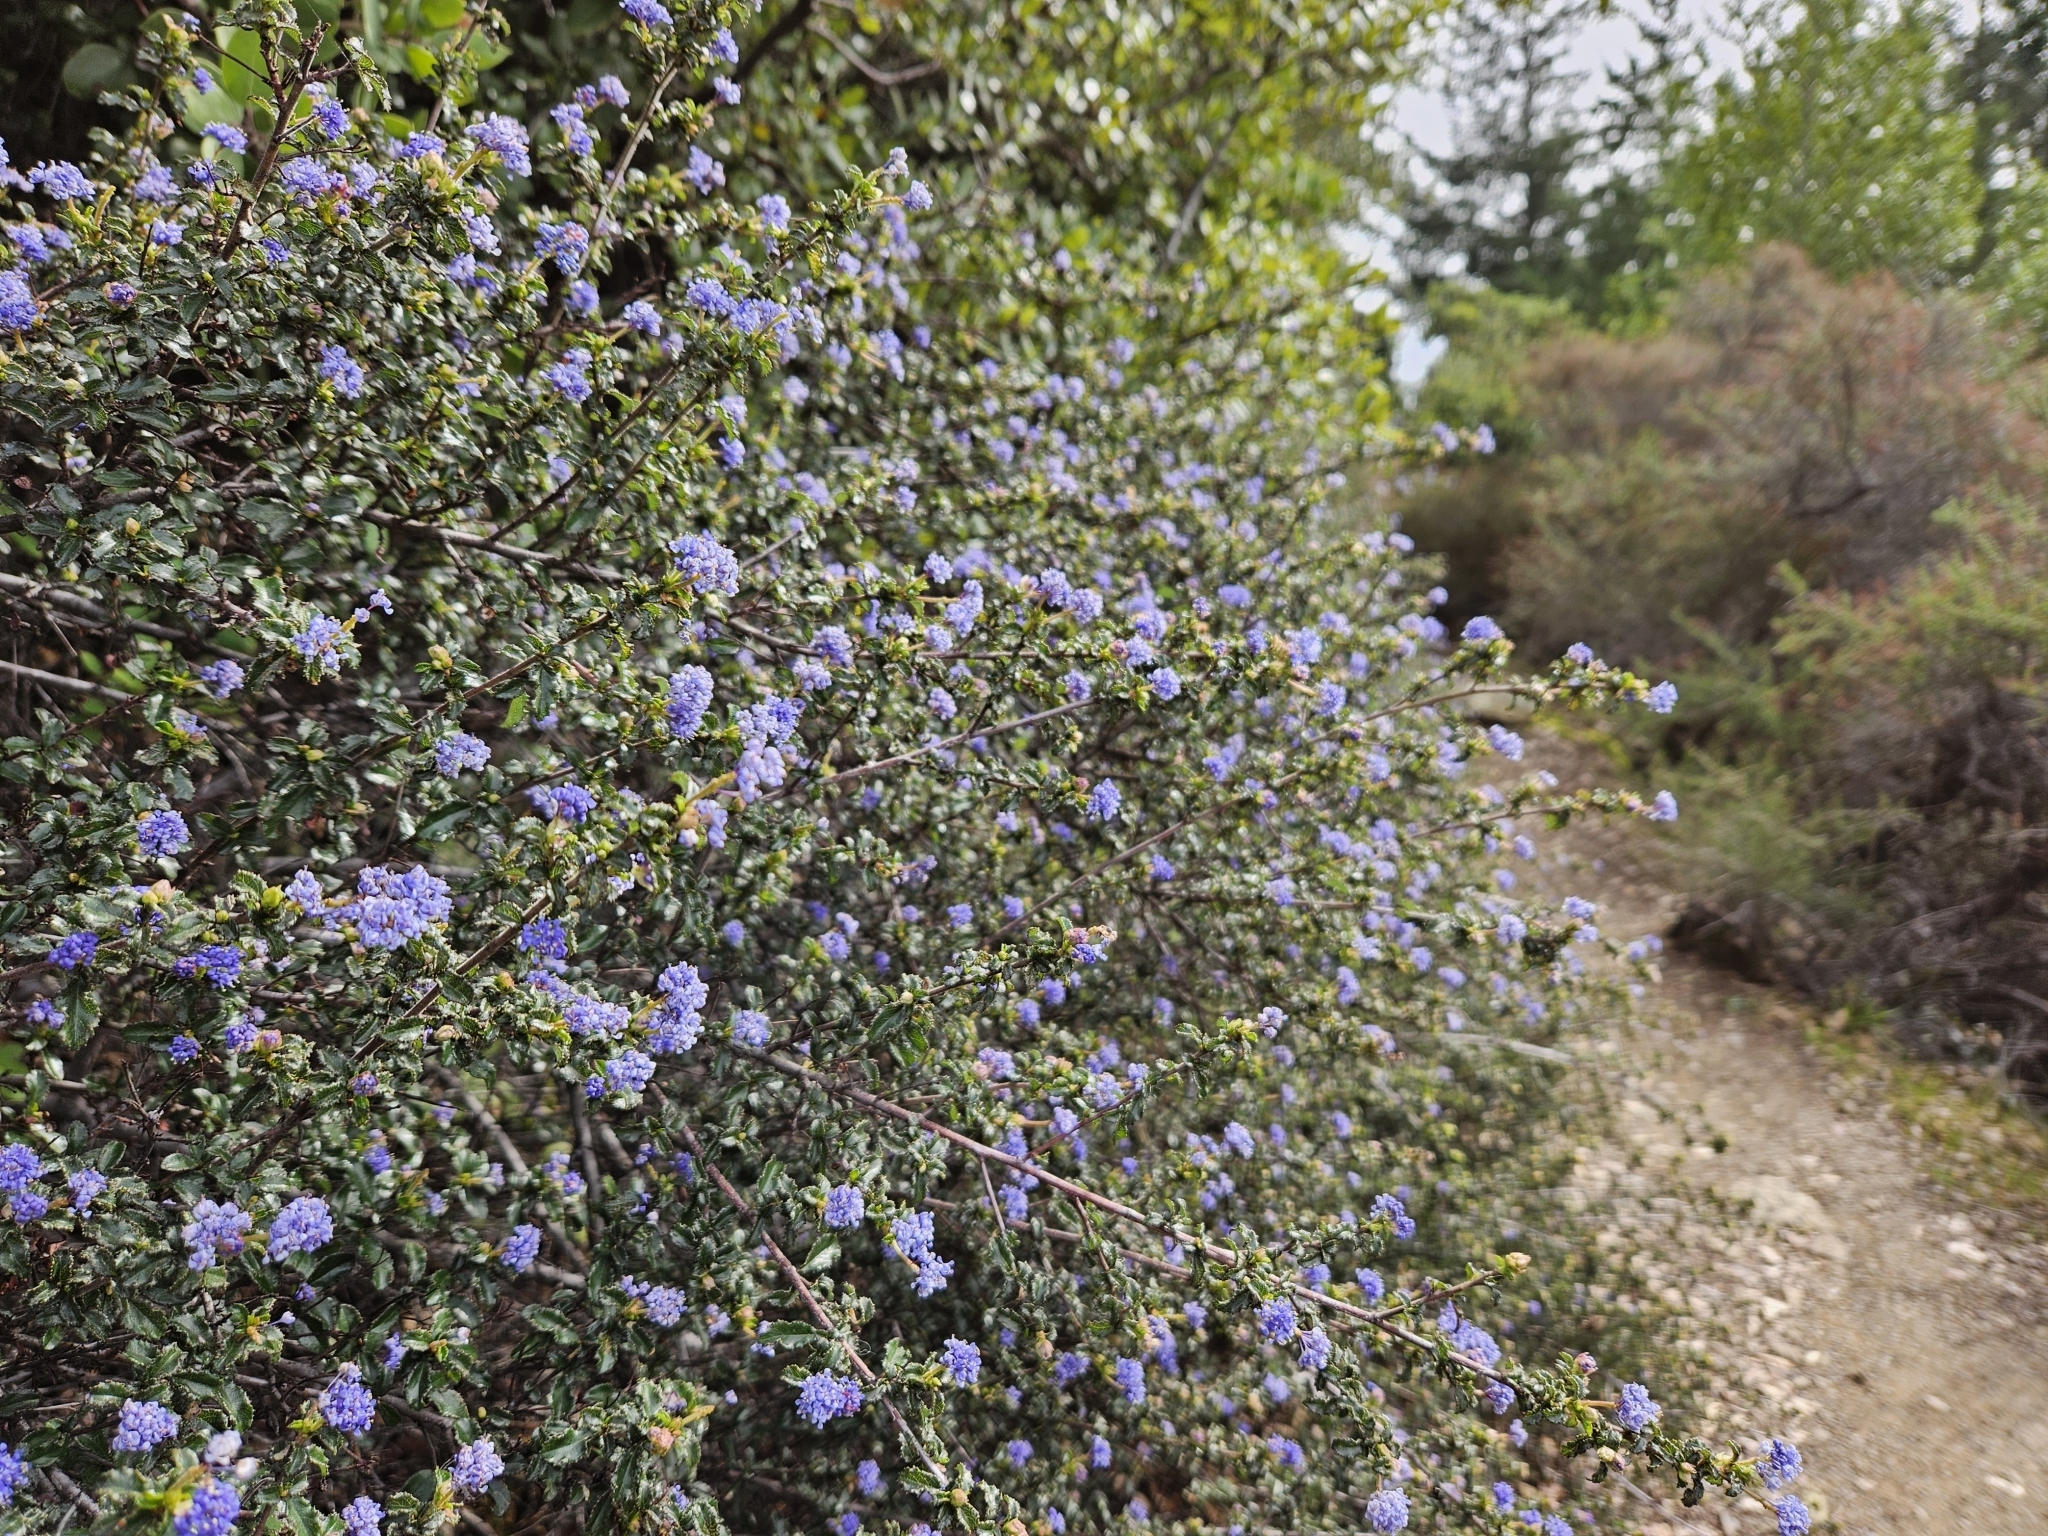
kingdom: Plantae
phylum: Tracheophyta
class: Magnoliopsida
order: Rosales
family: Rhamnaceae
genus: Ceanothus
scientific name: Ceanothus foliosus
